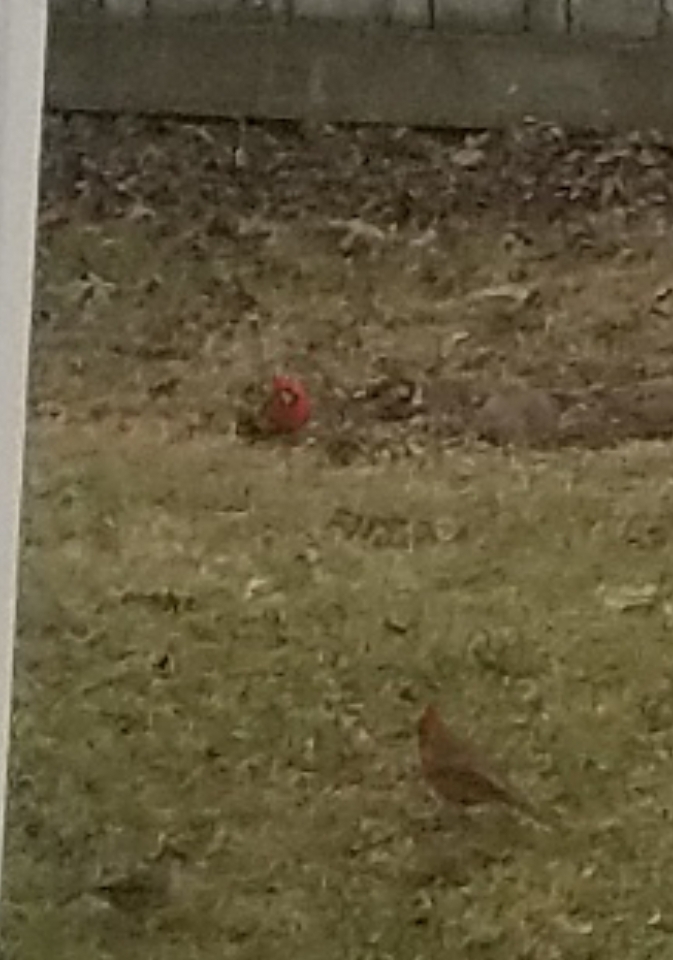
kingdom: Animalia
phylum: Chordata
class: Aves
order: Passeriformes
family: Cardinalidae
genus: Cardinalis
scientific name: Cardinalis cardinalis
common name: Northern cardinal
